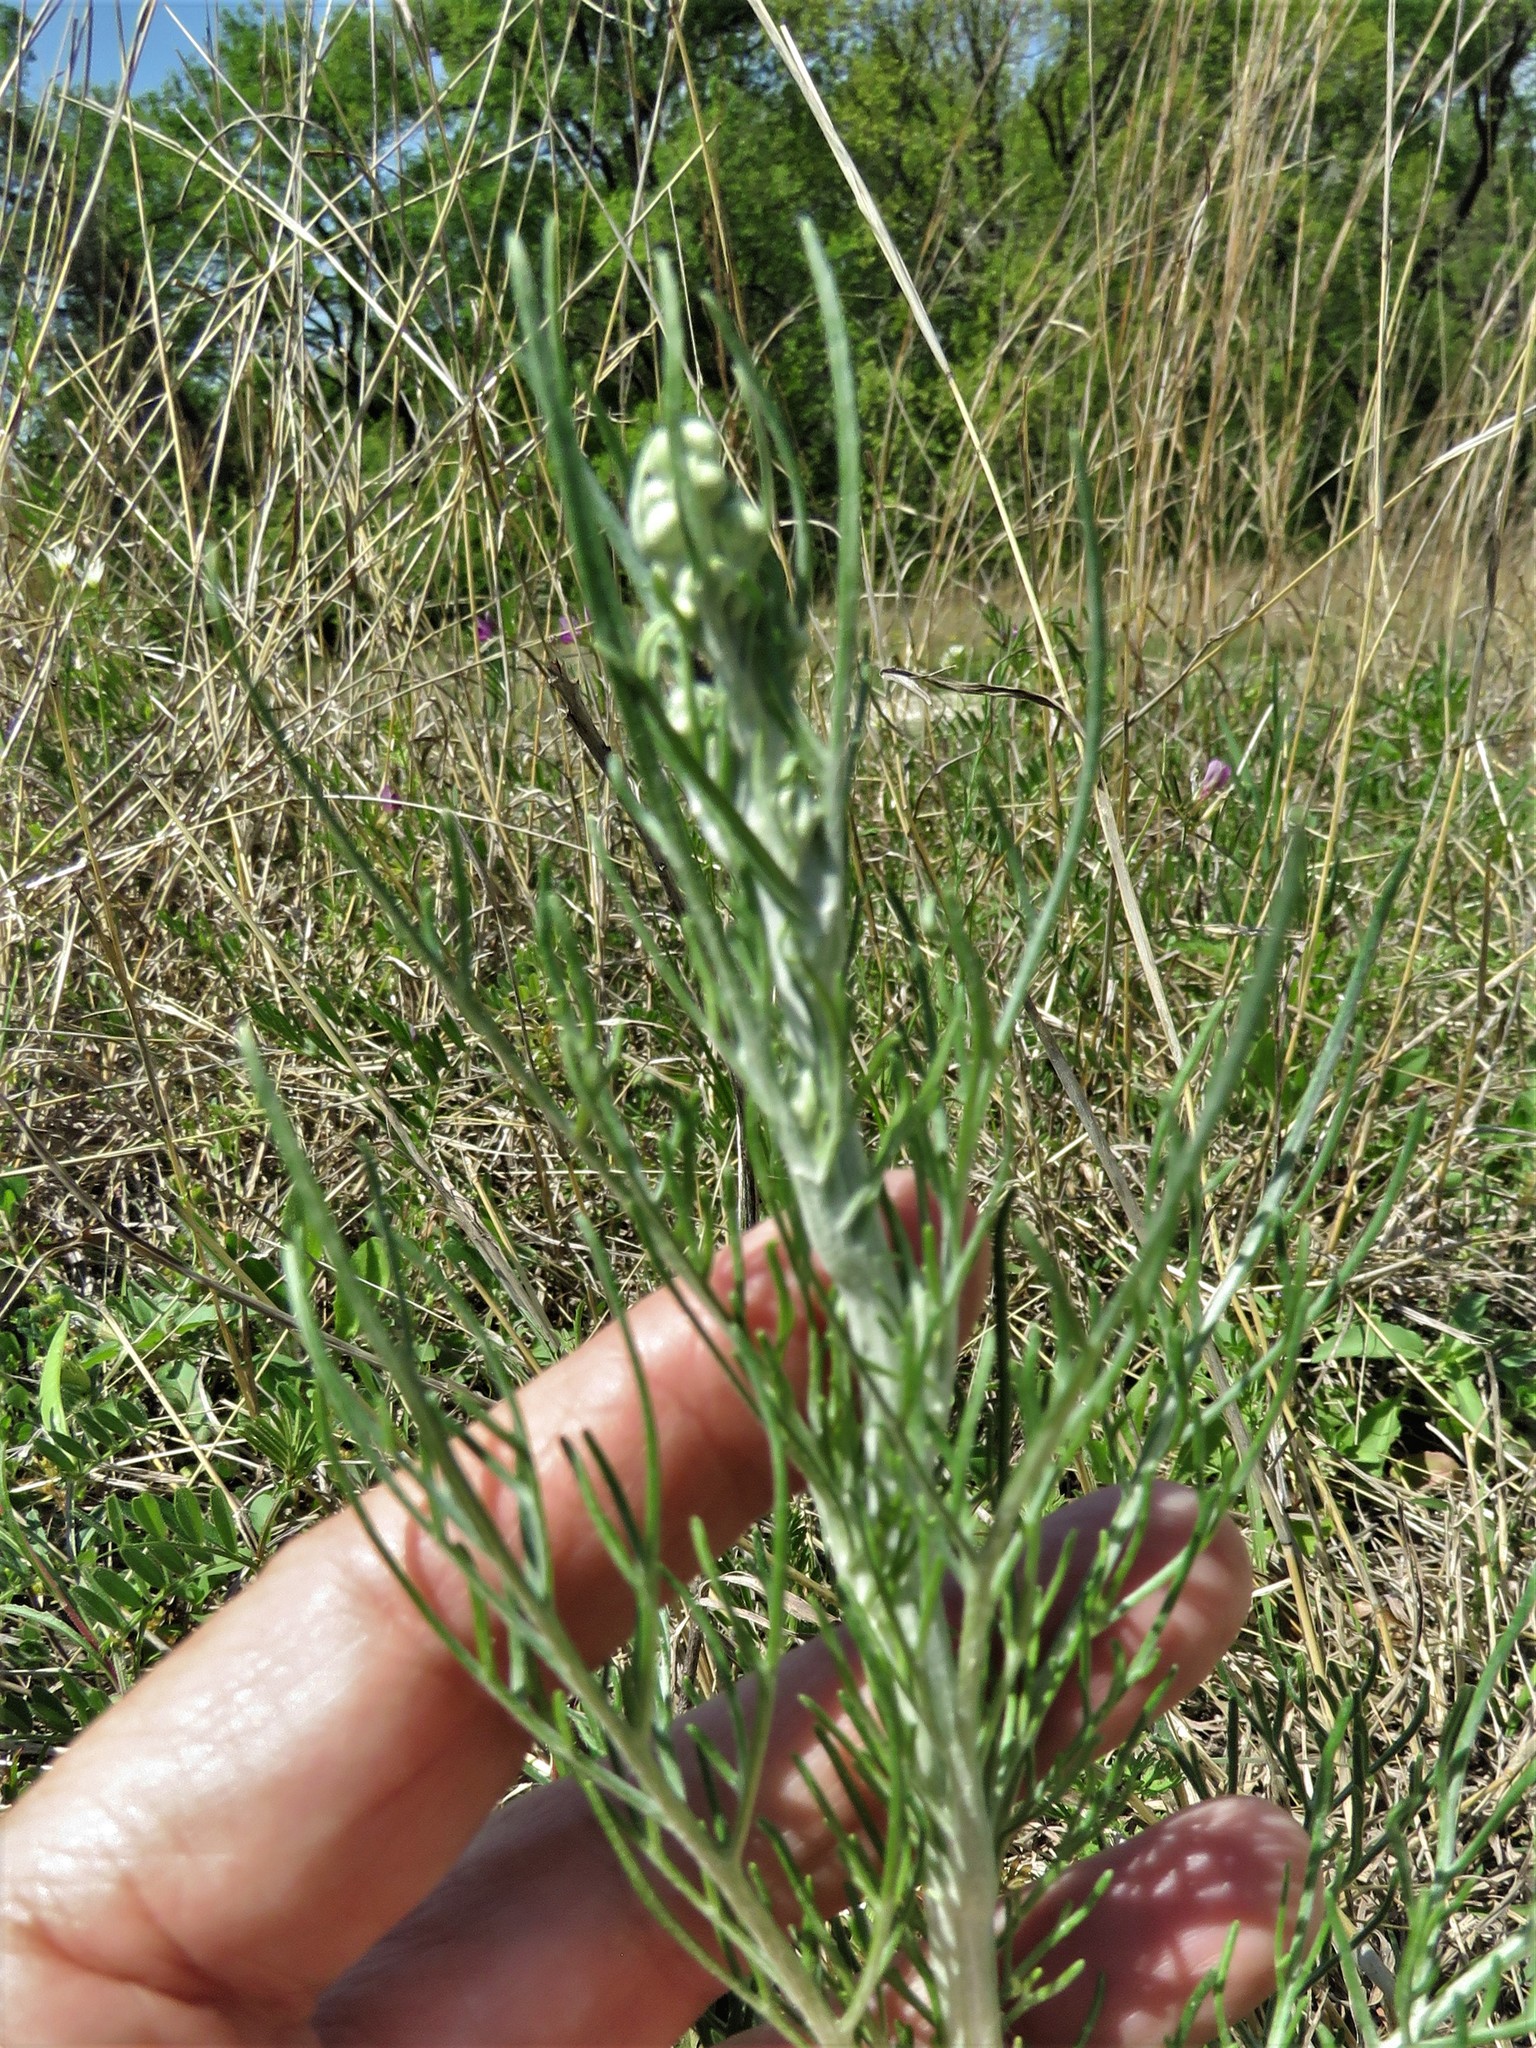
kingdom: Plantae
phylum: Tracheophyta
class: Magnoliopsida
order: Asterales
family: Asteraceae
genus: Hymenopappus
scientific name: Hymenopappus scabiosaeus
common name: Carolina woollywhite
